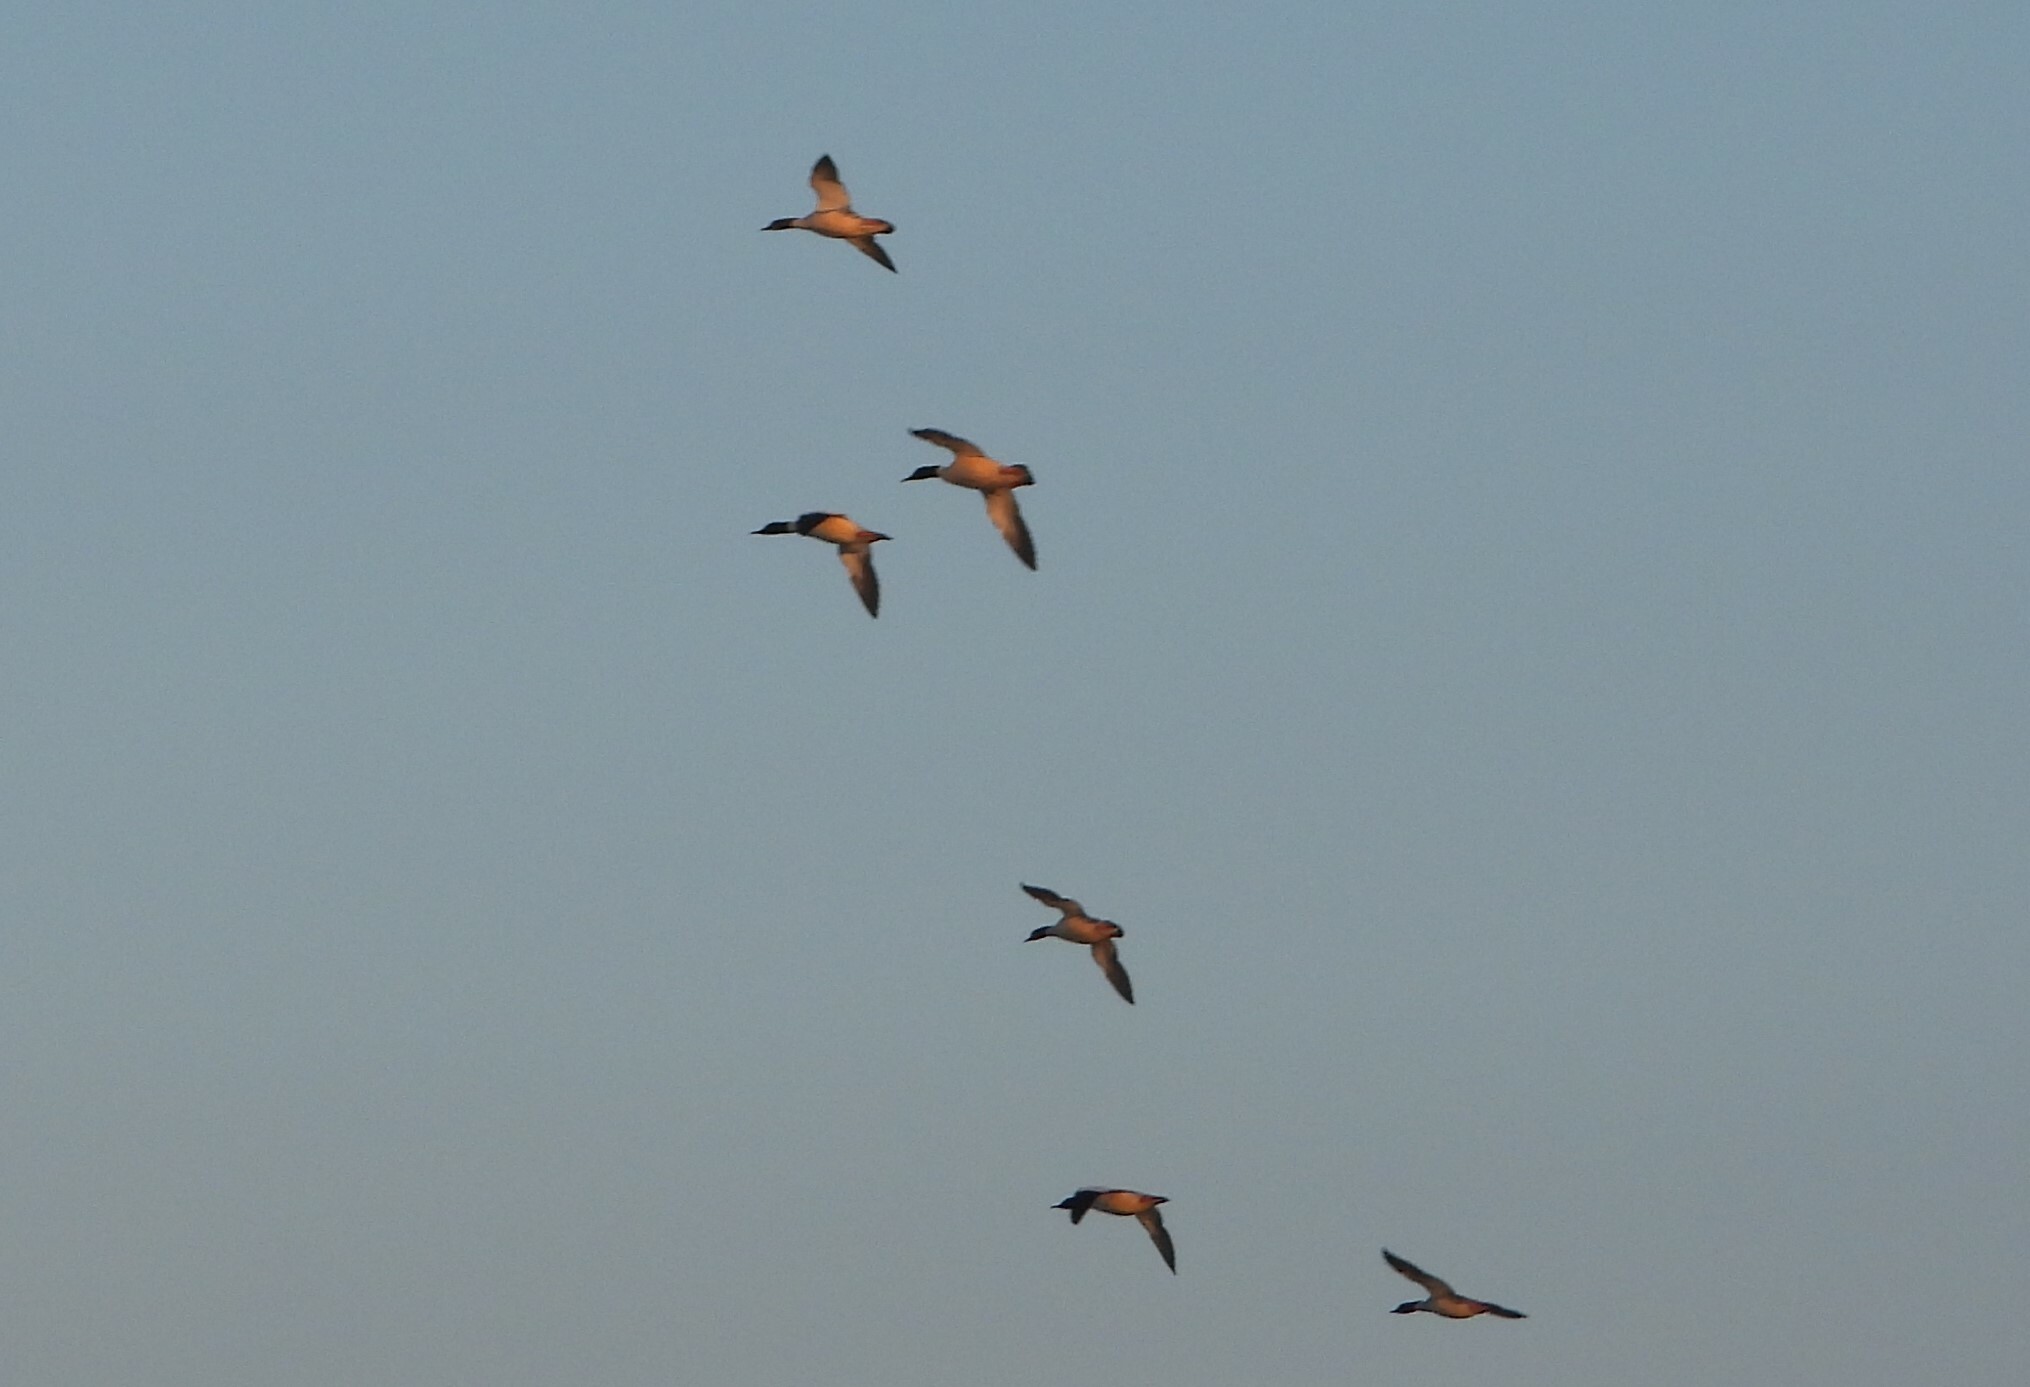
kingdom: Animalia
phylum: Chordata
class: Aves
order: Anseriformes
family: Anatidae
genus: Mergus
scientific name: Mergus merganser
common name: Common merganser
